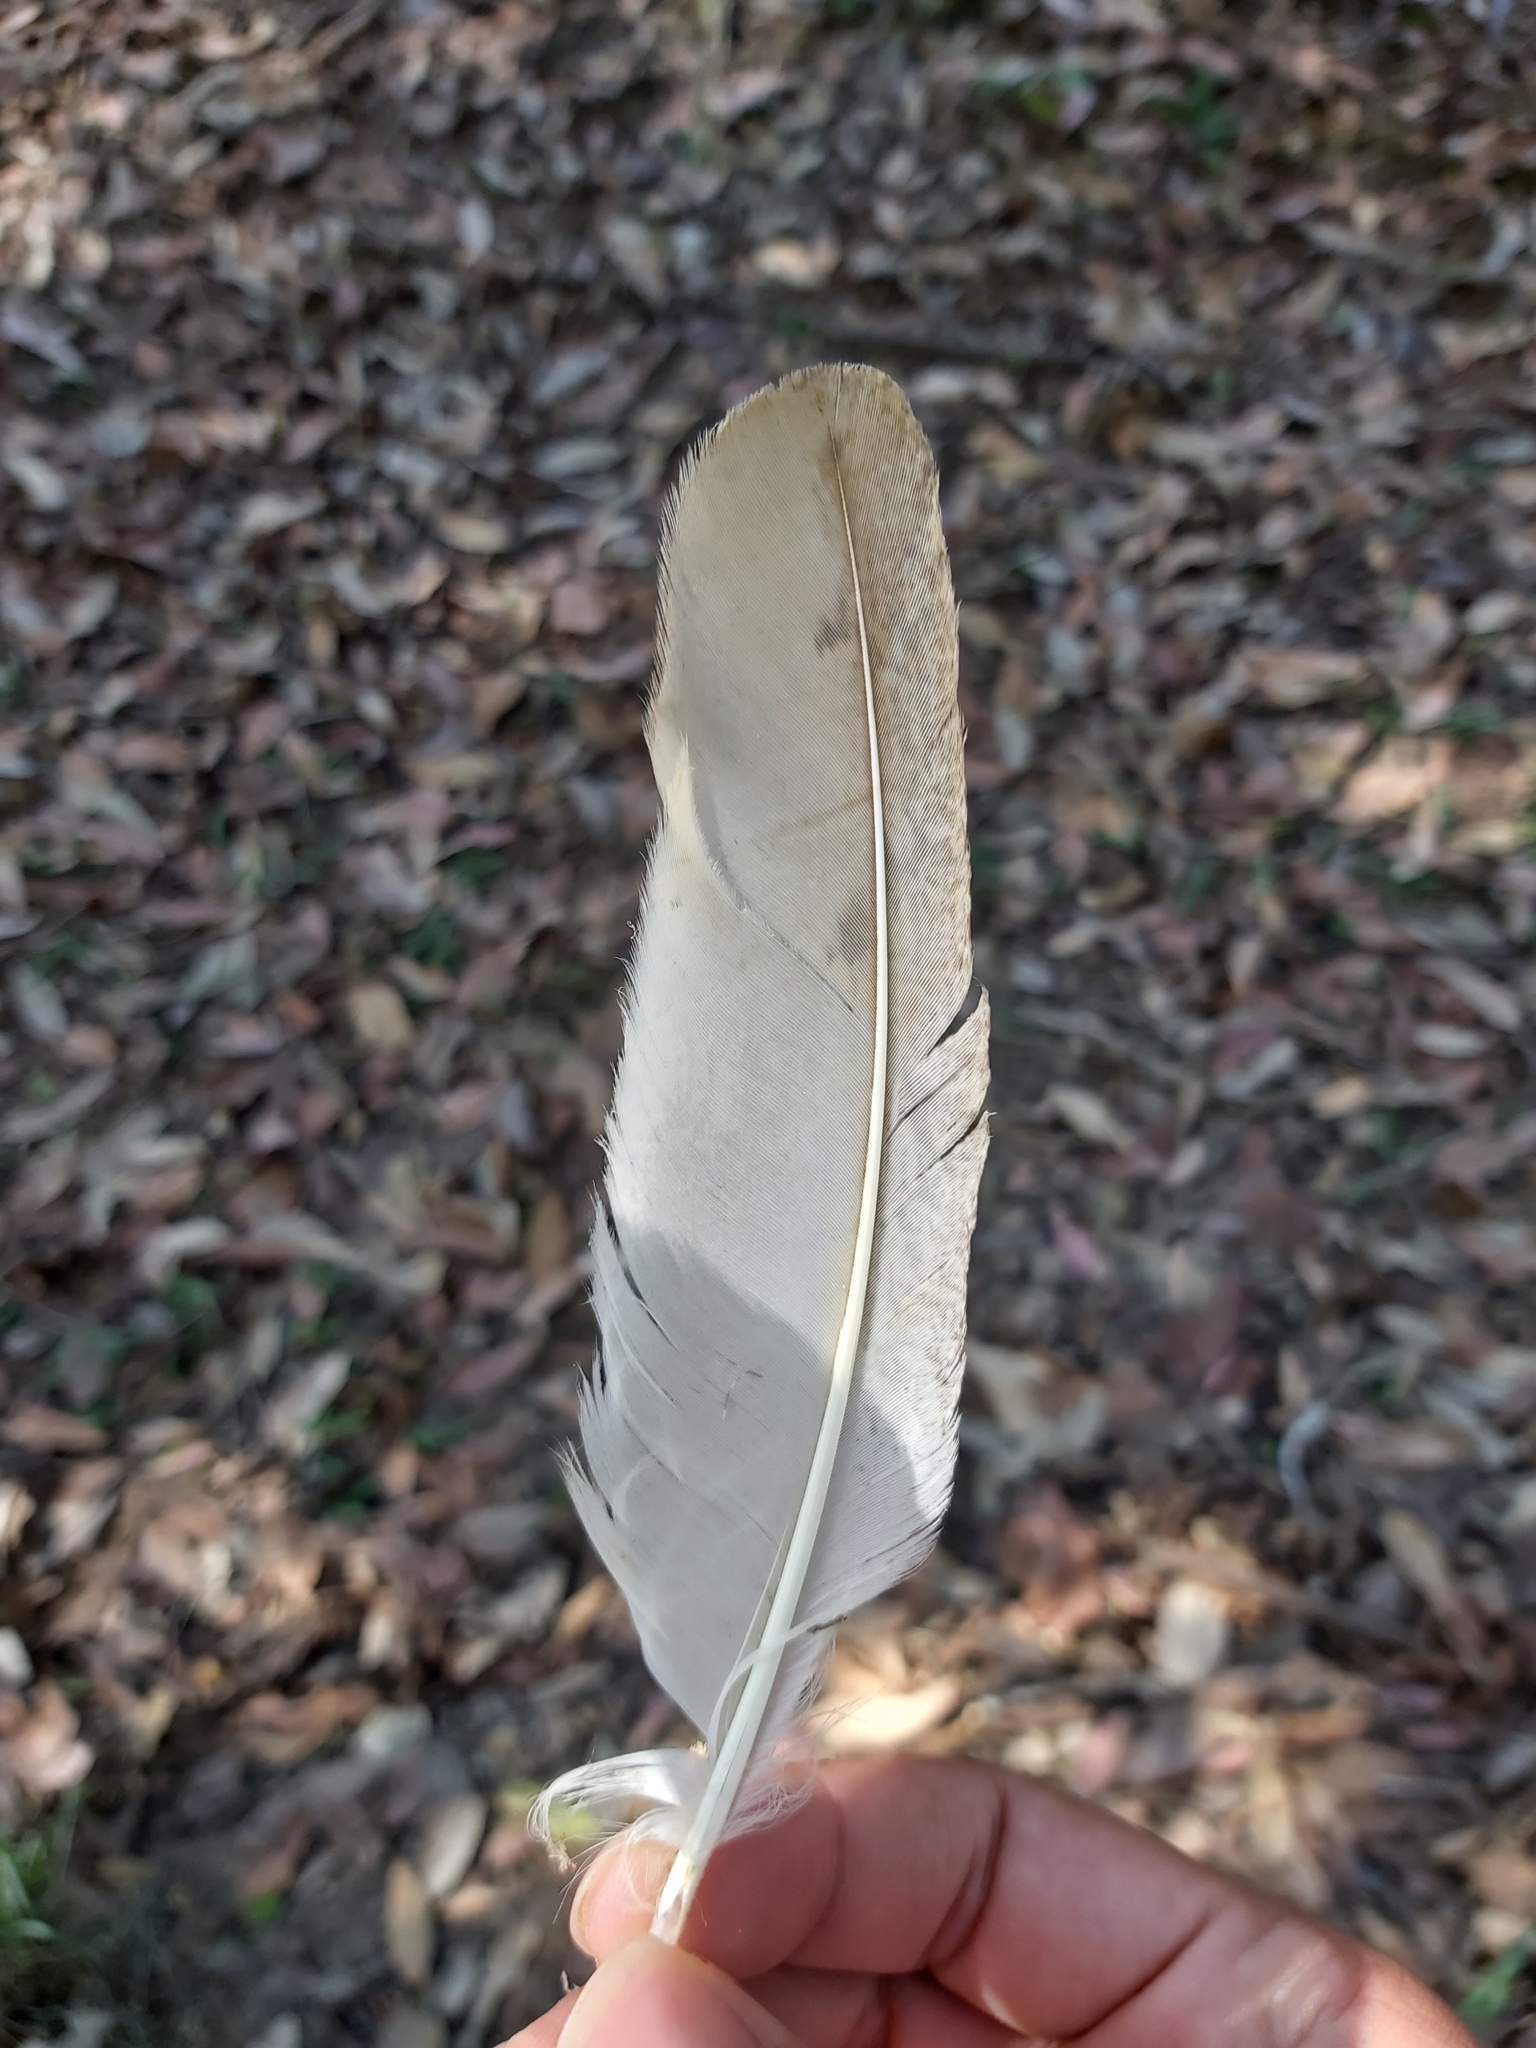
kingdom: Animalia
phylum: Chordata
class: Aves
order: Strigiformes
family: Tytonidae
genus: Tyto
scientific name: Tyto alba
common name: Barn owl
